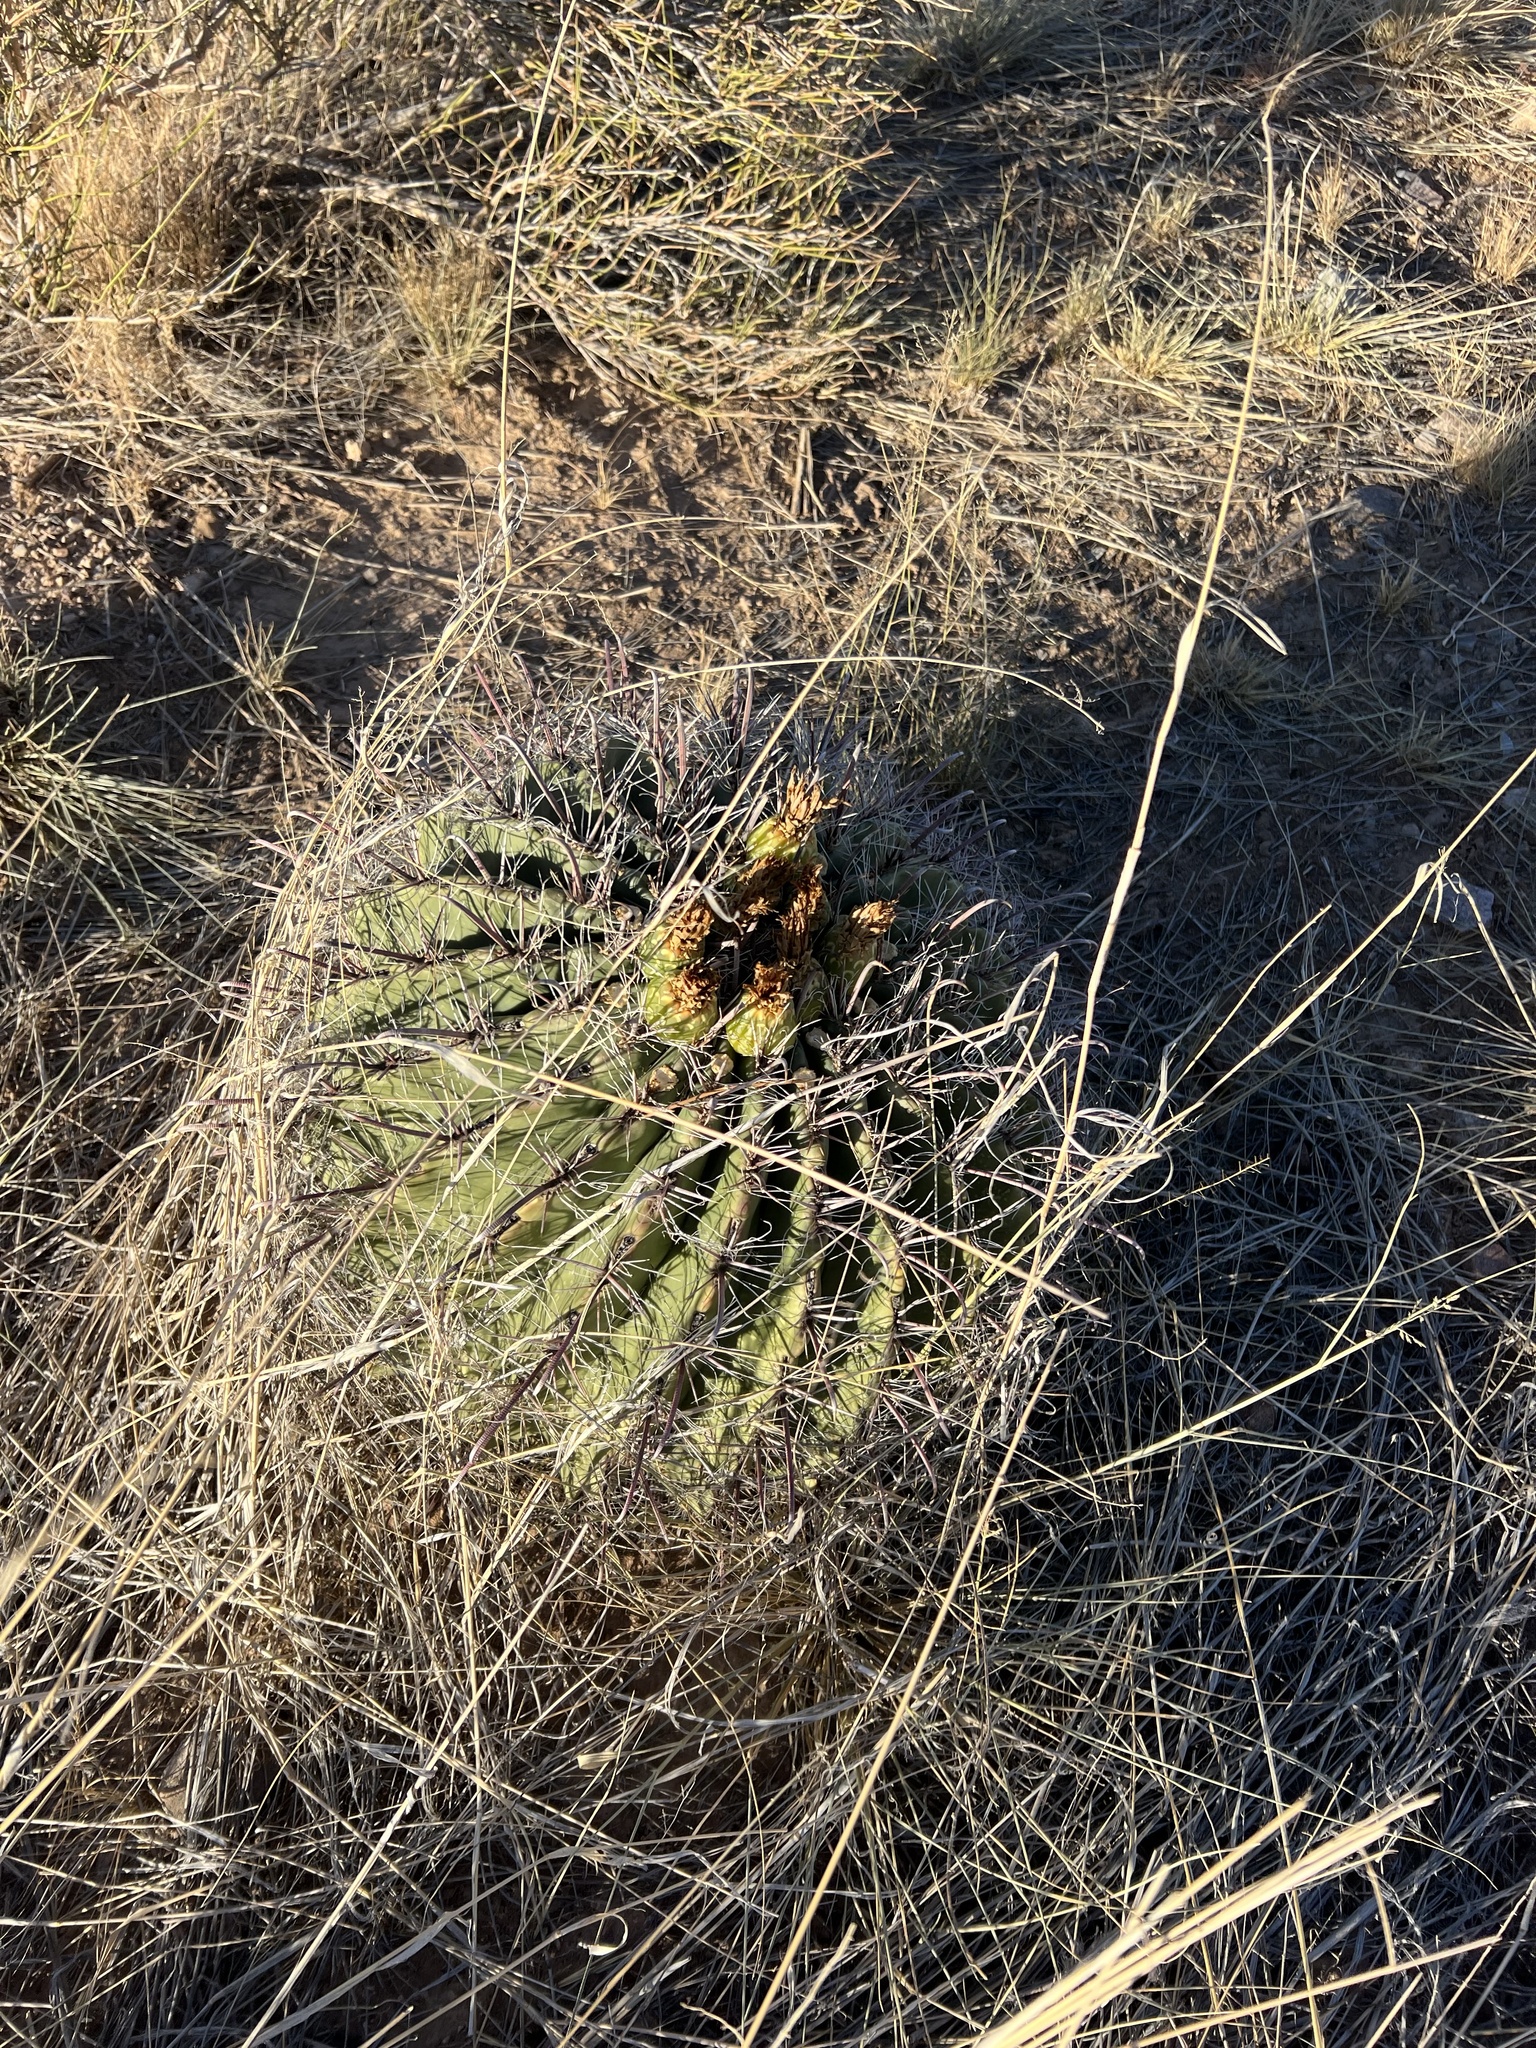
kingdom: Plantae
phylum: Tracheophyta
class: Magnoliopsida
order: Caryophyllales
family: Cactaceae
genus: Ferocactus
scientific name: Ferocactus wislizeni
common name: Candy barrel cactus
